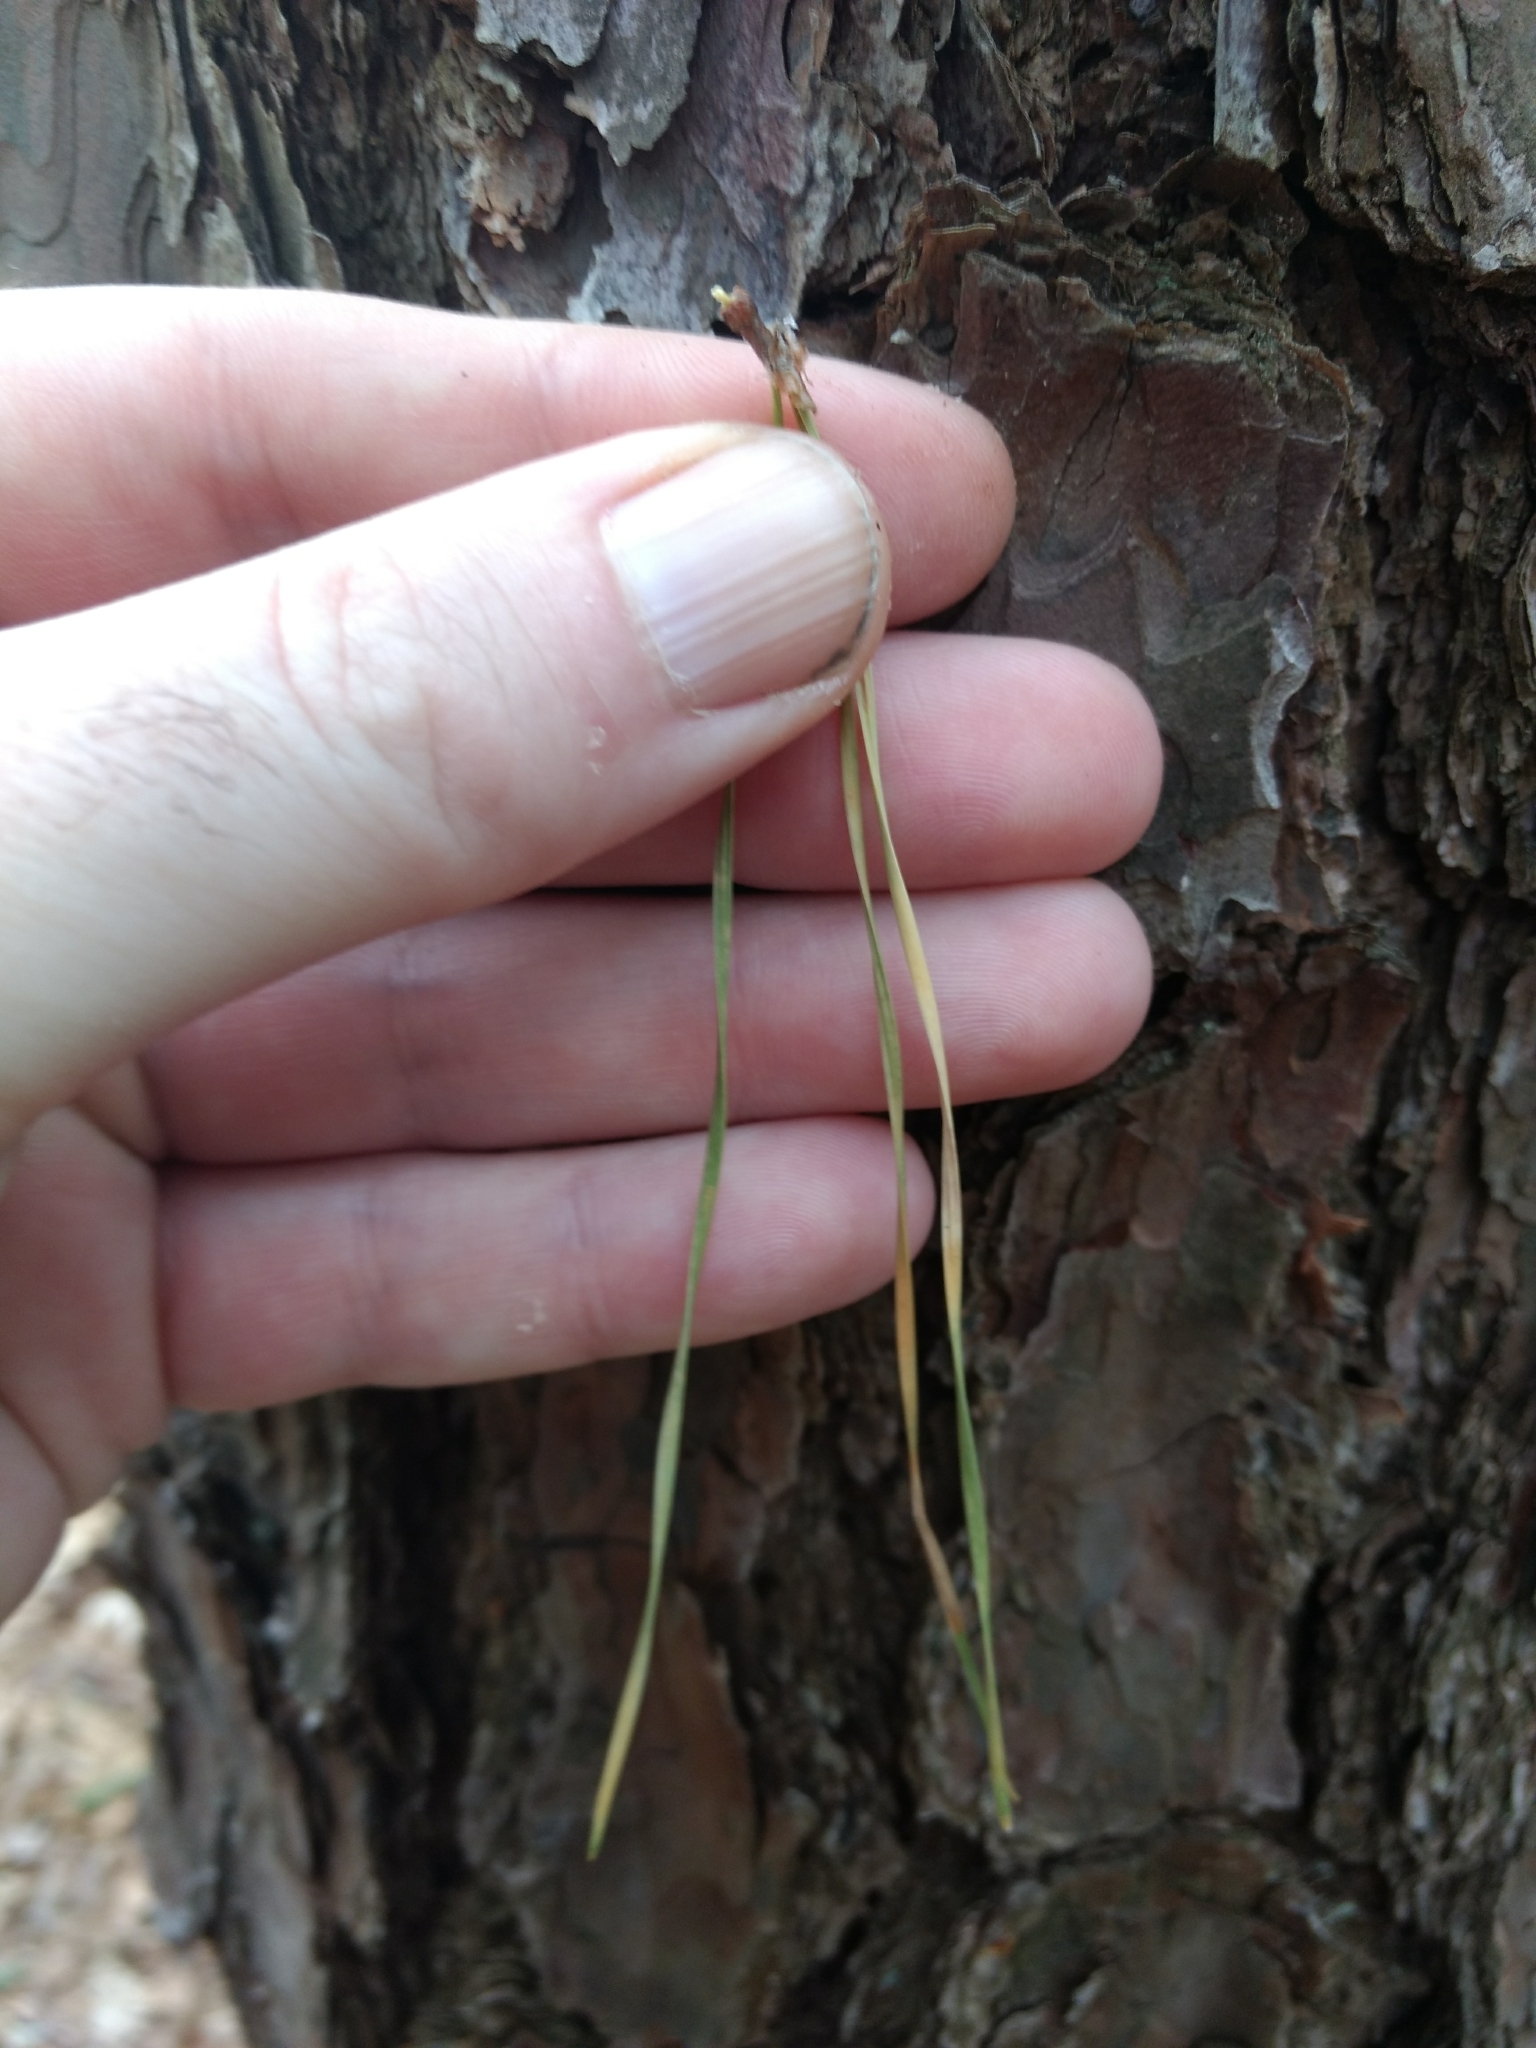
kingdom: Plantae
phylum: Tracheophyta
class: Pinopsida
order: Pinales
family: Pinaceae
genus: Pinus
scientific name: Pinus rigida
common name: Pitch pine
